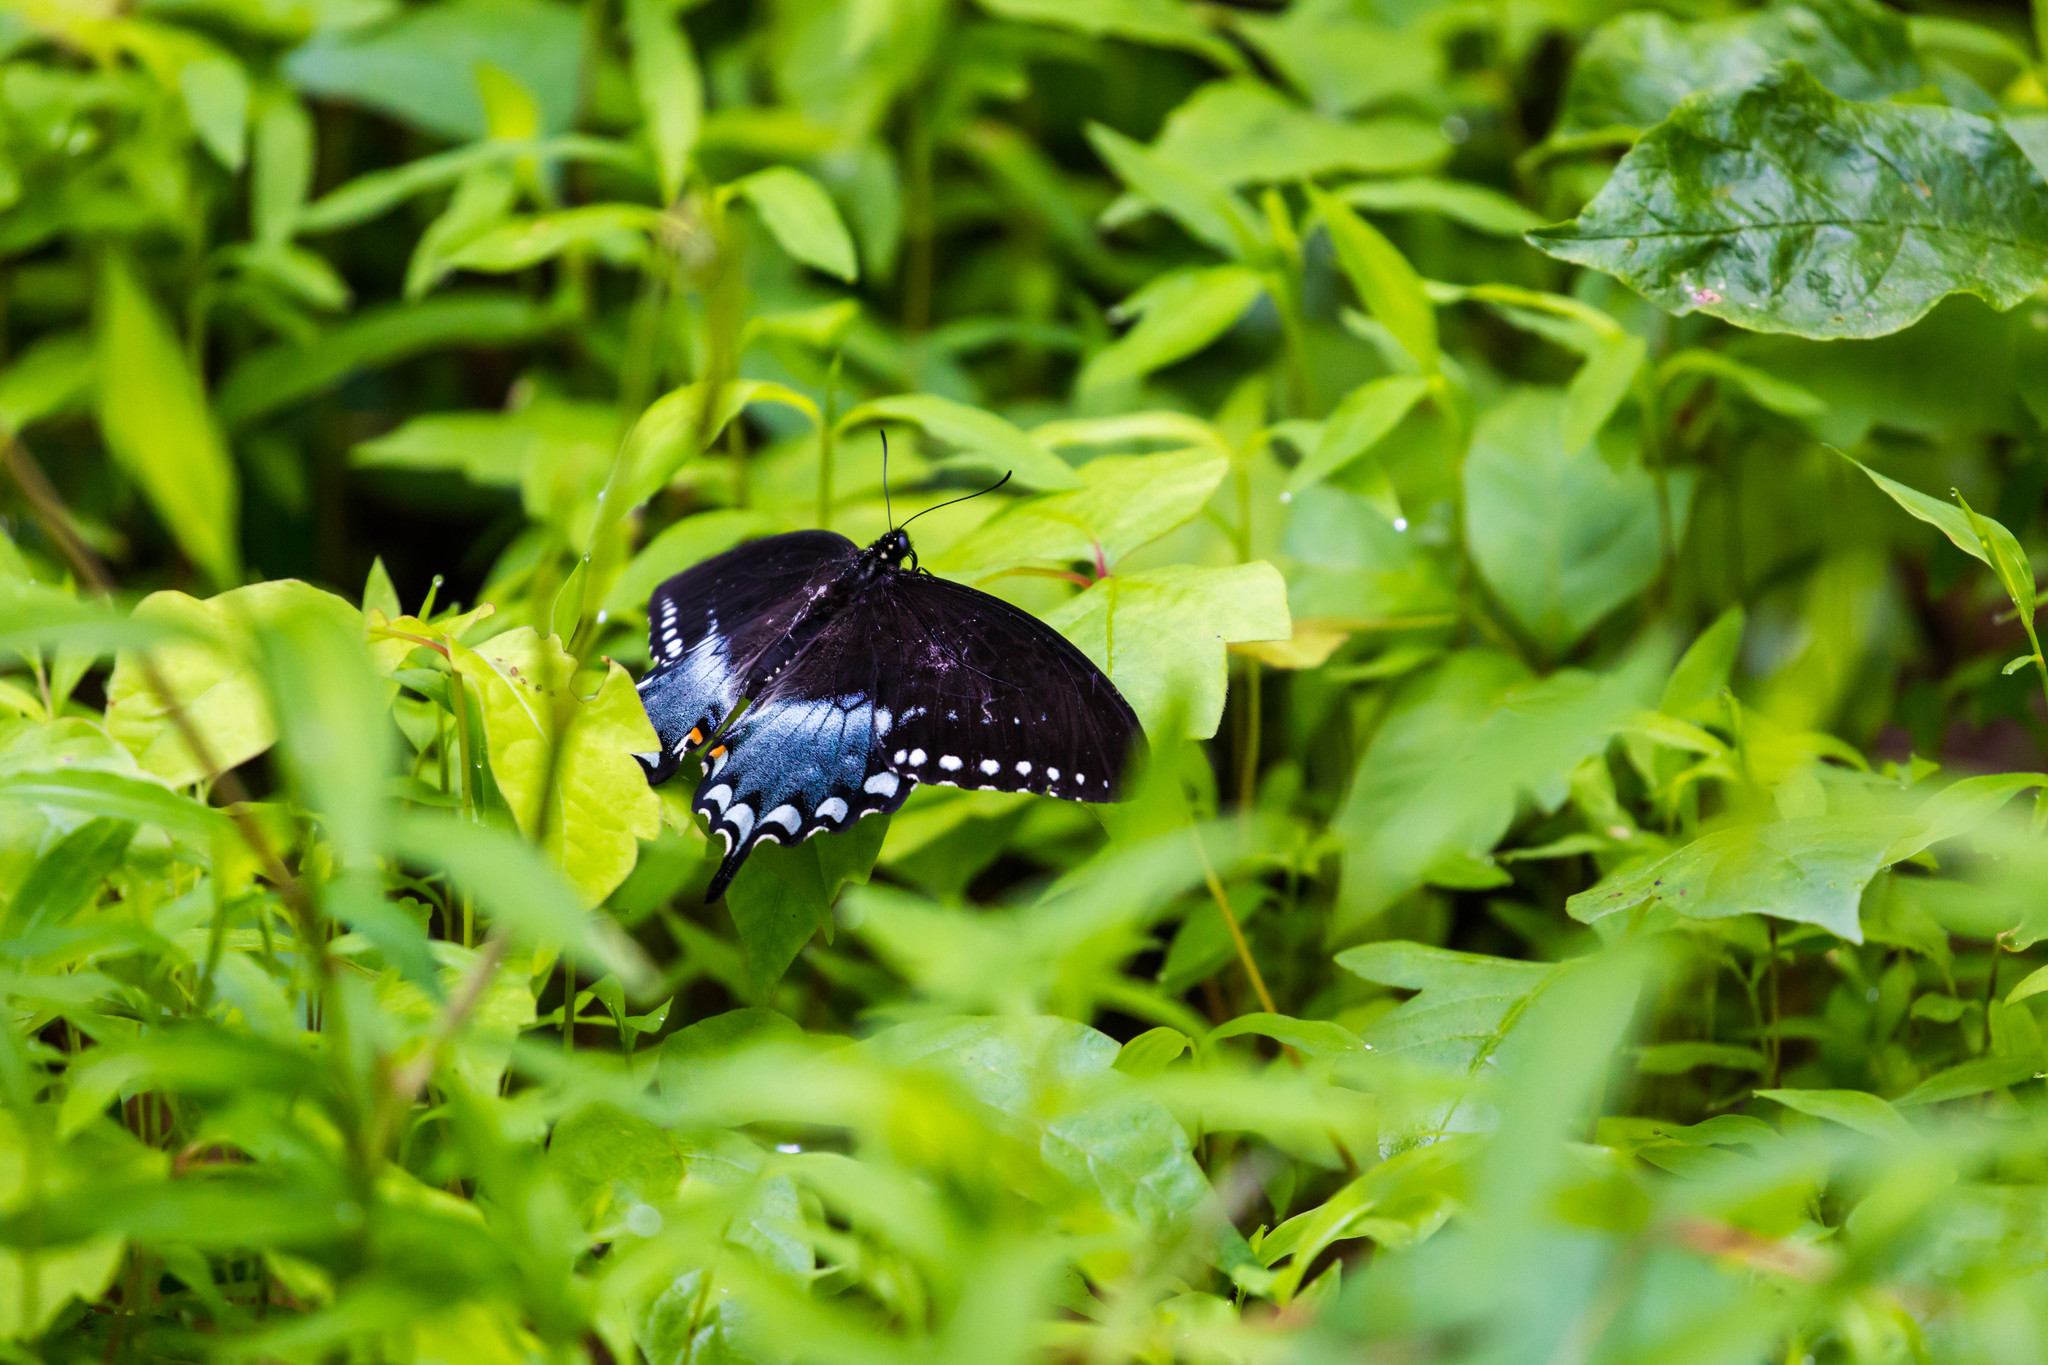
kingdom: Animalia
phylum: Arthropoda
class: Insecta
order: Lepidoptera
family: Papilionidae
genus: Papilio
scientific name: Papilio troilus
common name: Spicebush swallowtail
